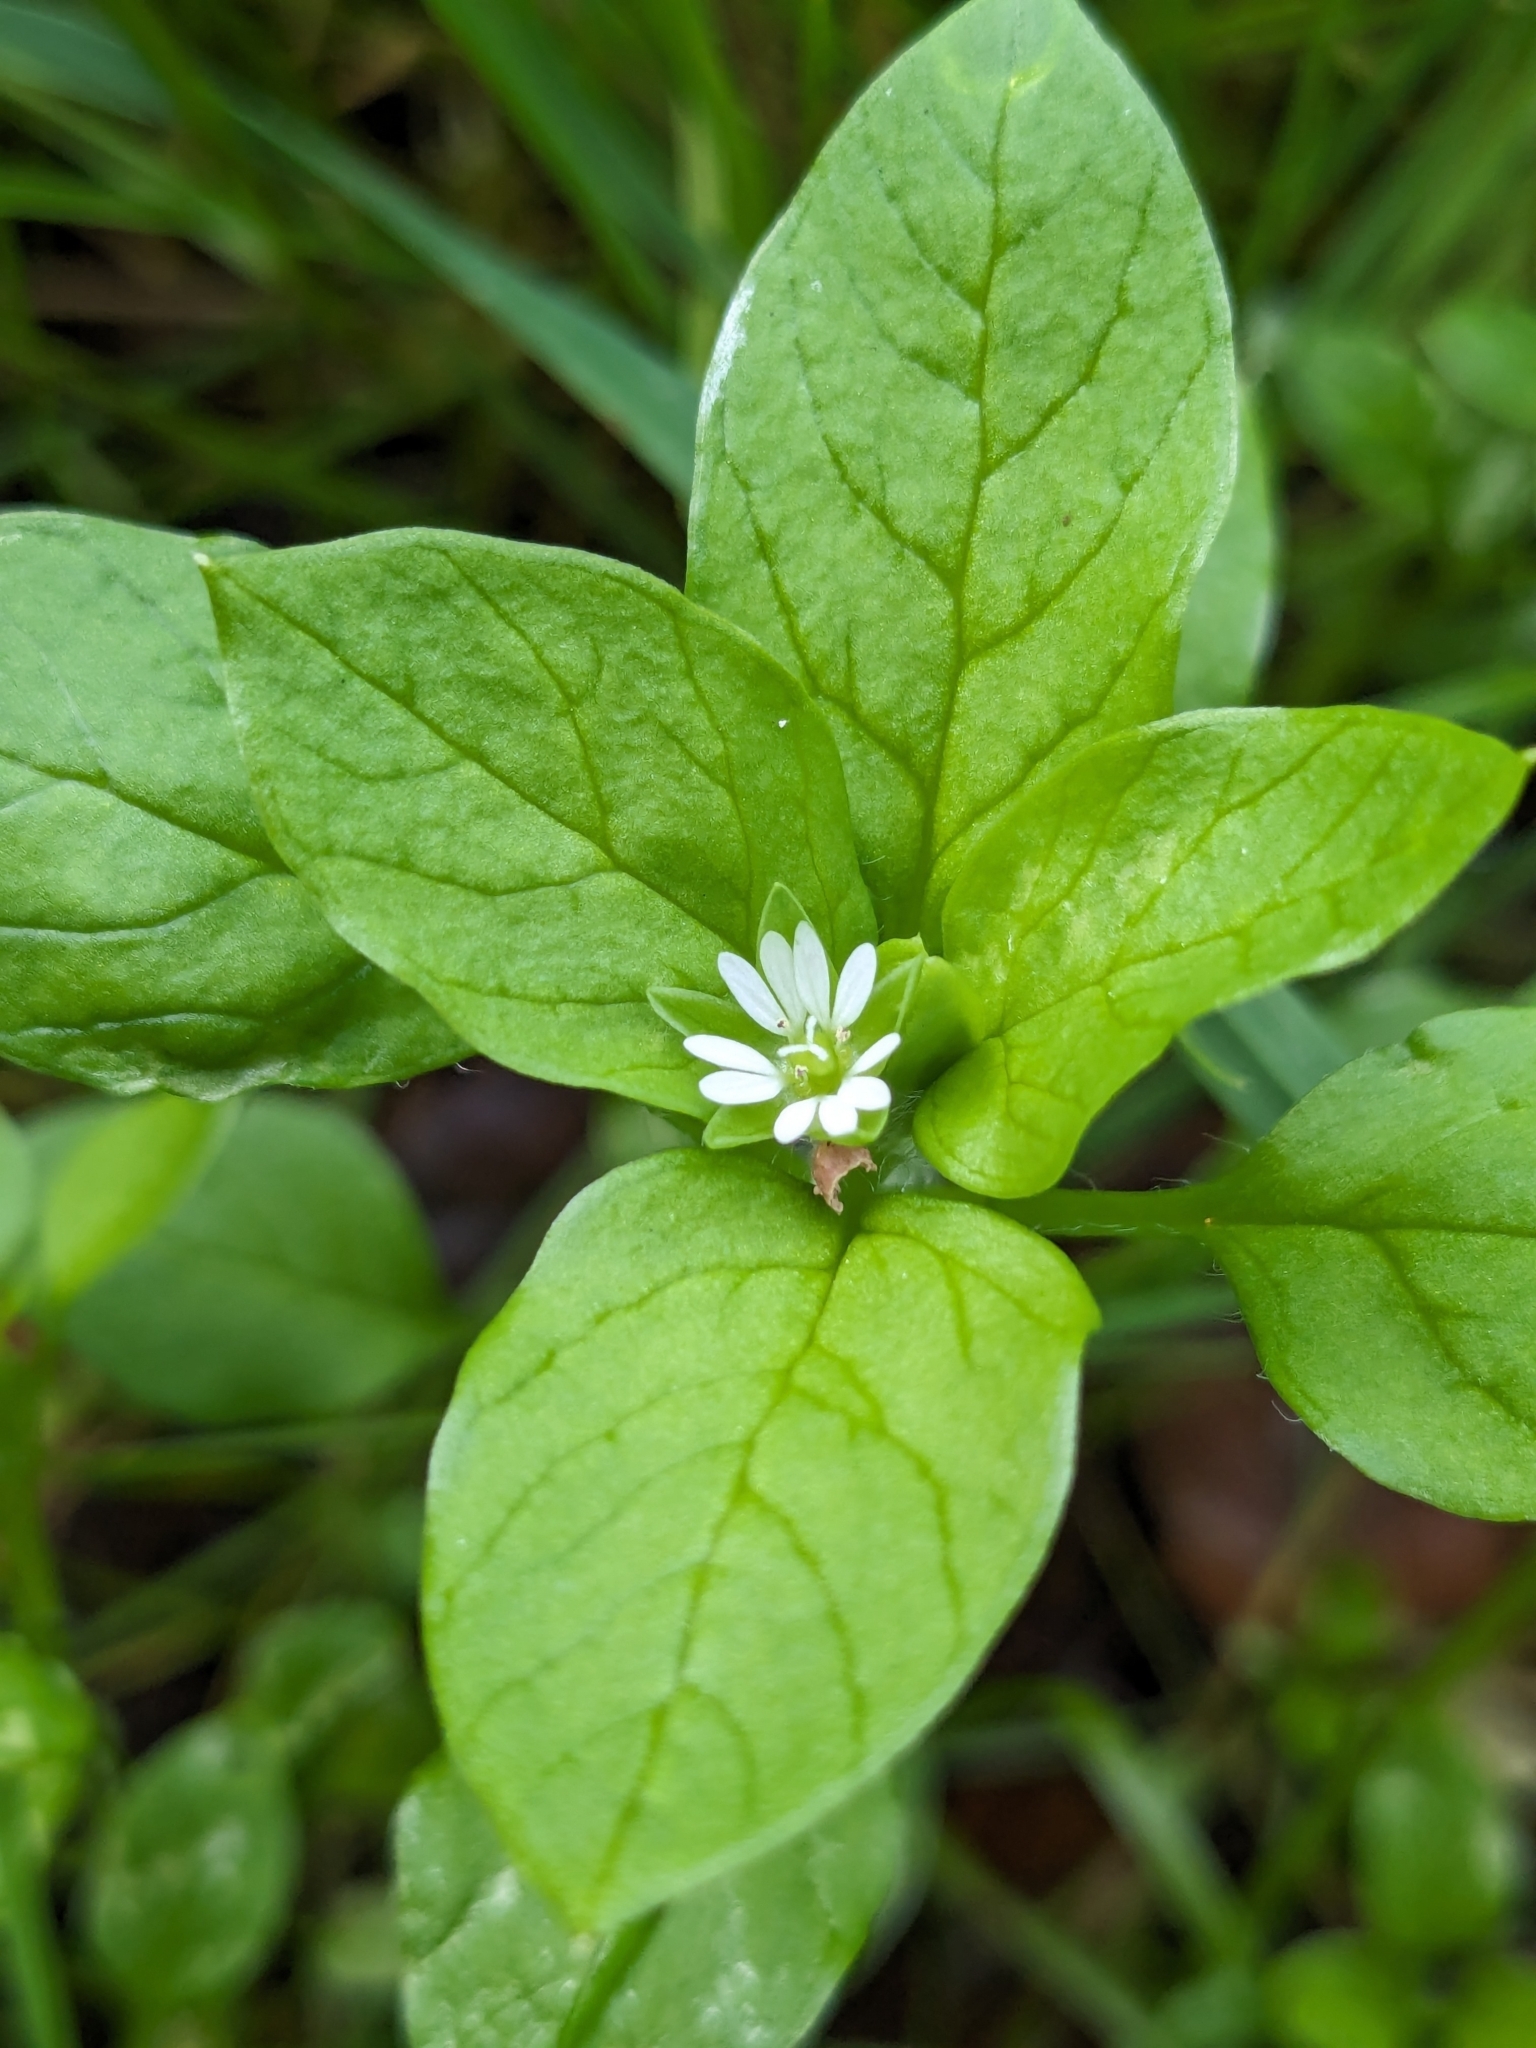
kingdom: Plantae
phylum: Tracheophyta
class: Magnoliopsida
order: Caryophyllales
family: Caryophyllaceae
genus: Stellaria
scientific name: Stellaria media
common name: Common chickweed
